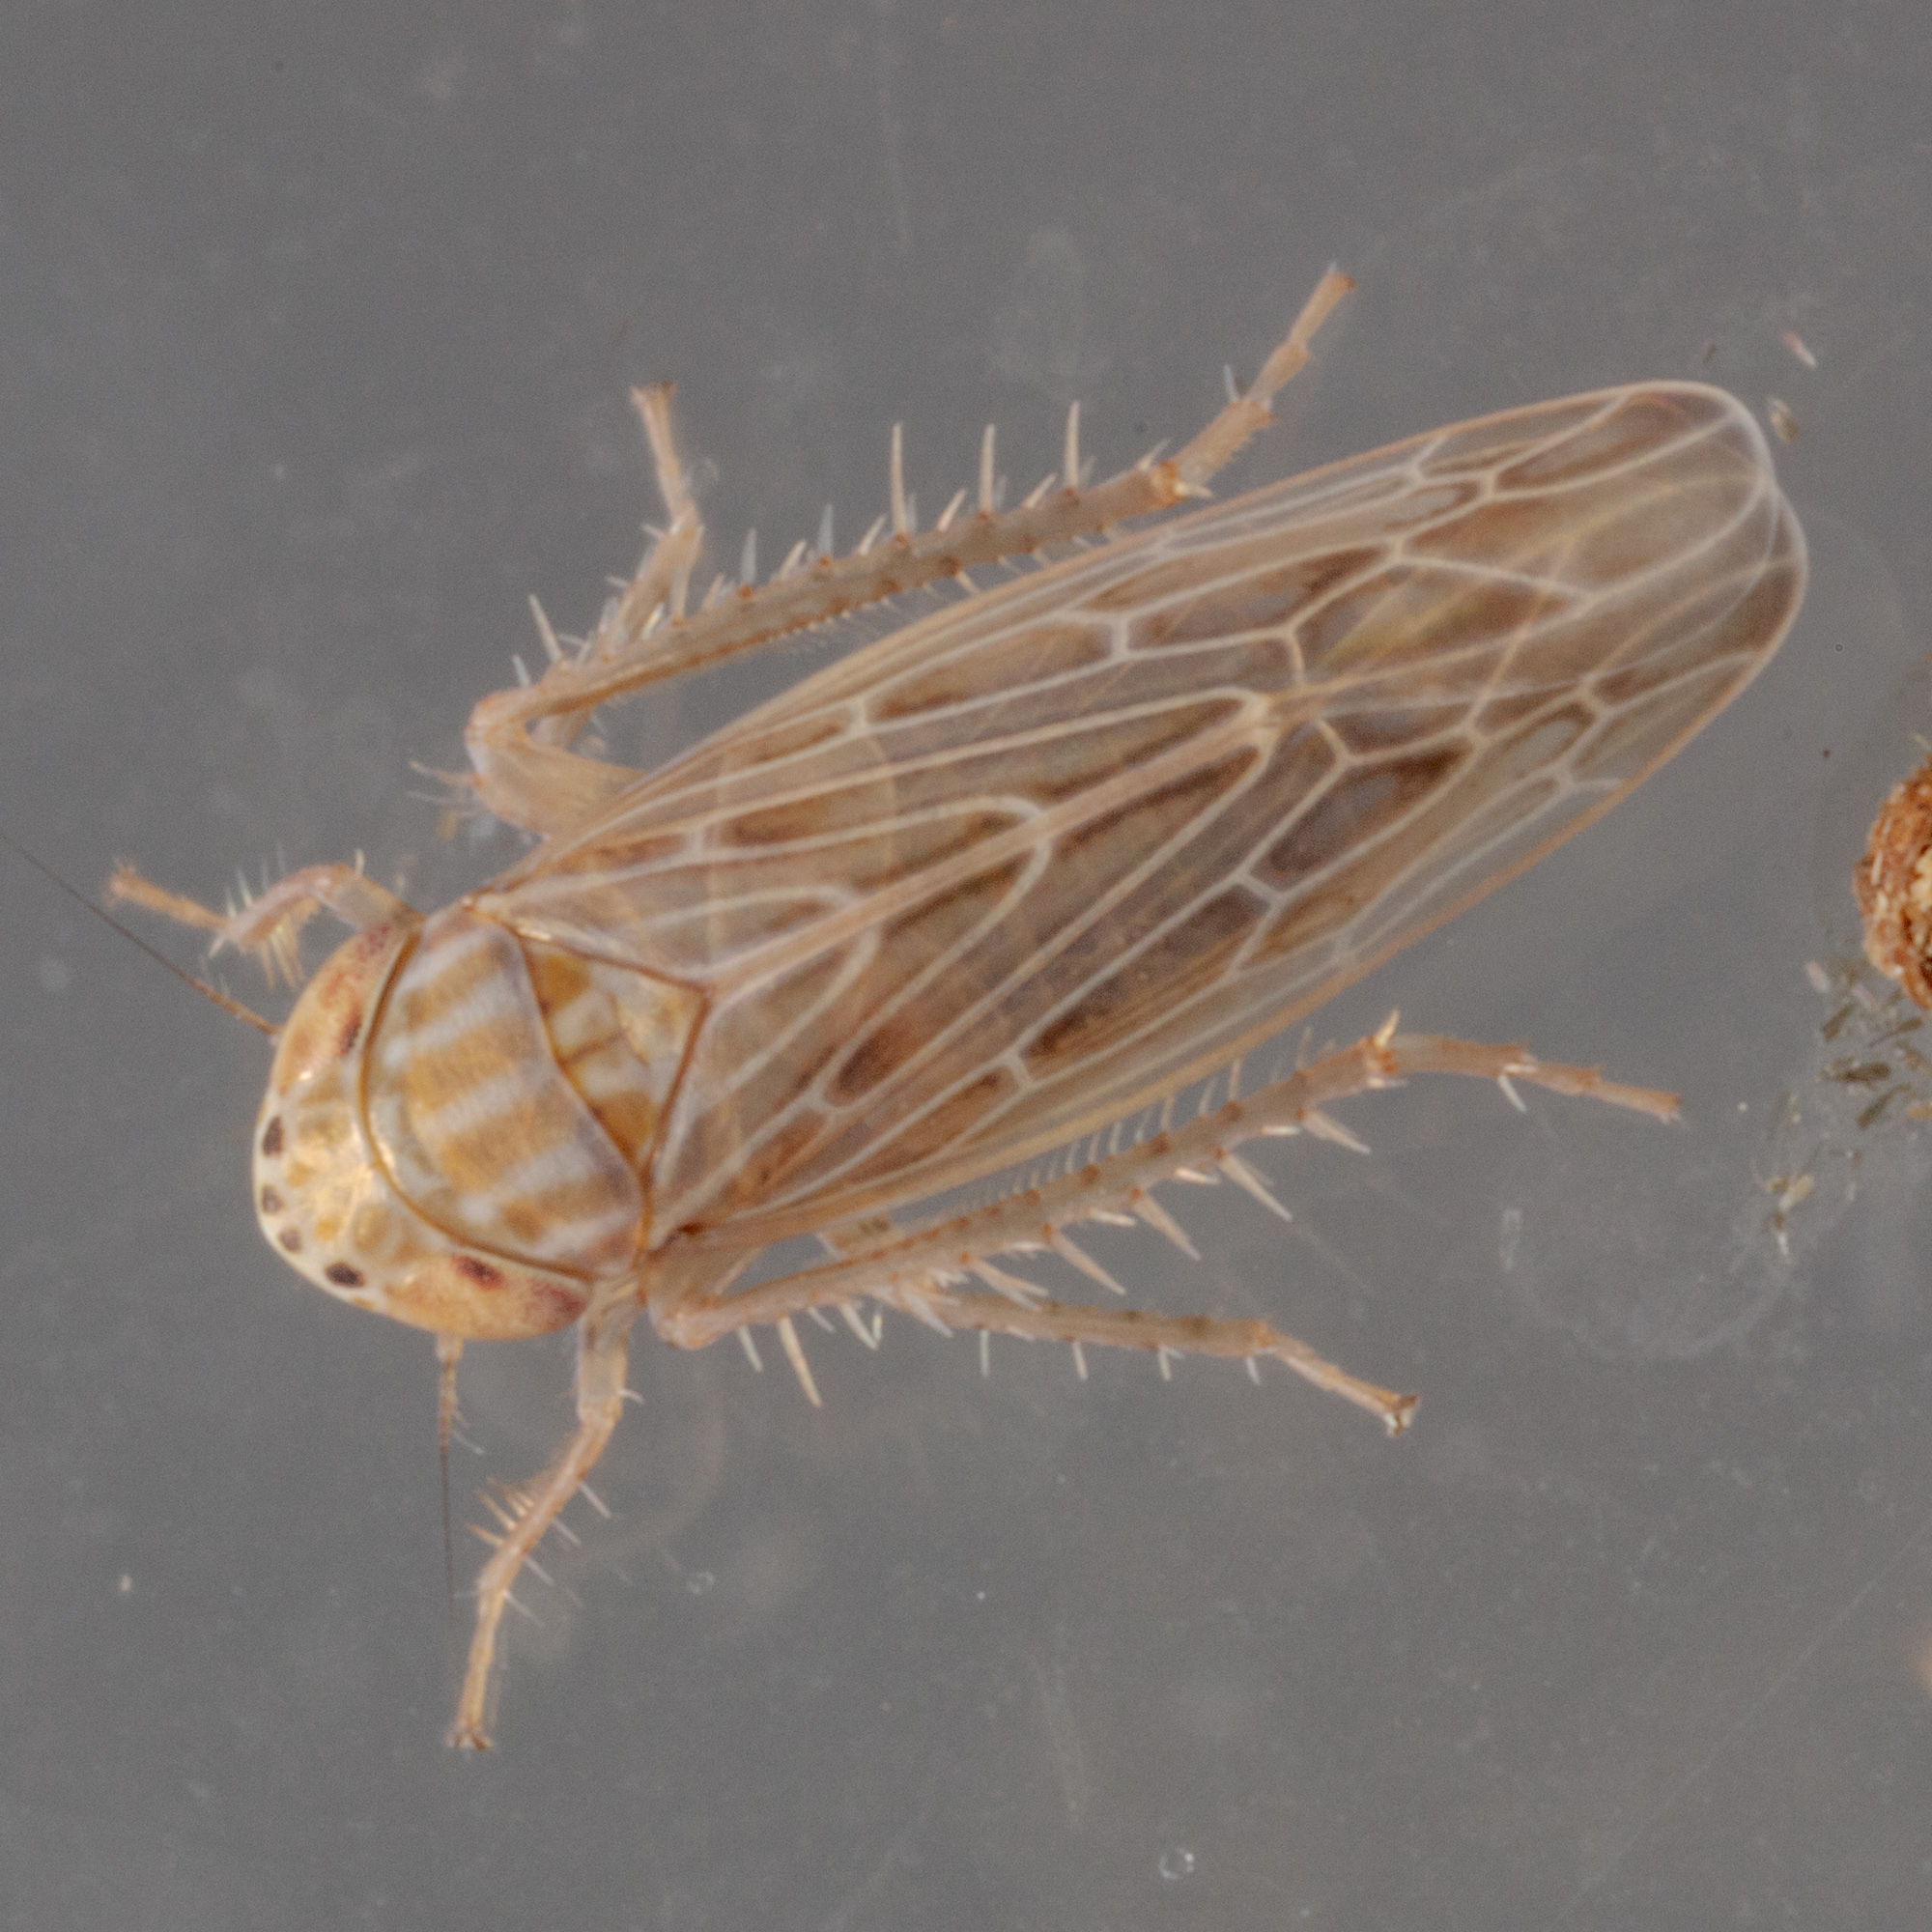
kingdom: Animalia
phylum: Arthropoda
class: Insecta
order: Hemiptera
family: Cicadellidae
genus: Graminella
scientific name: Graminella sonora
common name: Lesser lawn leafhopper
